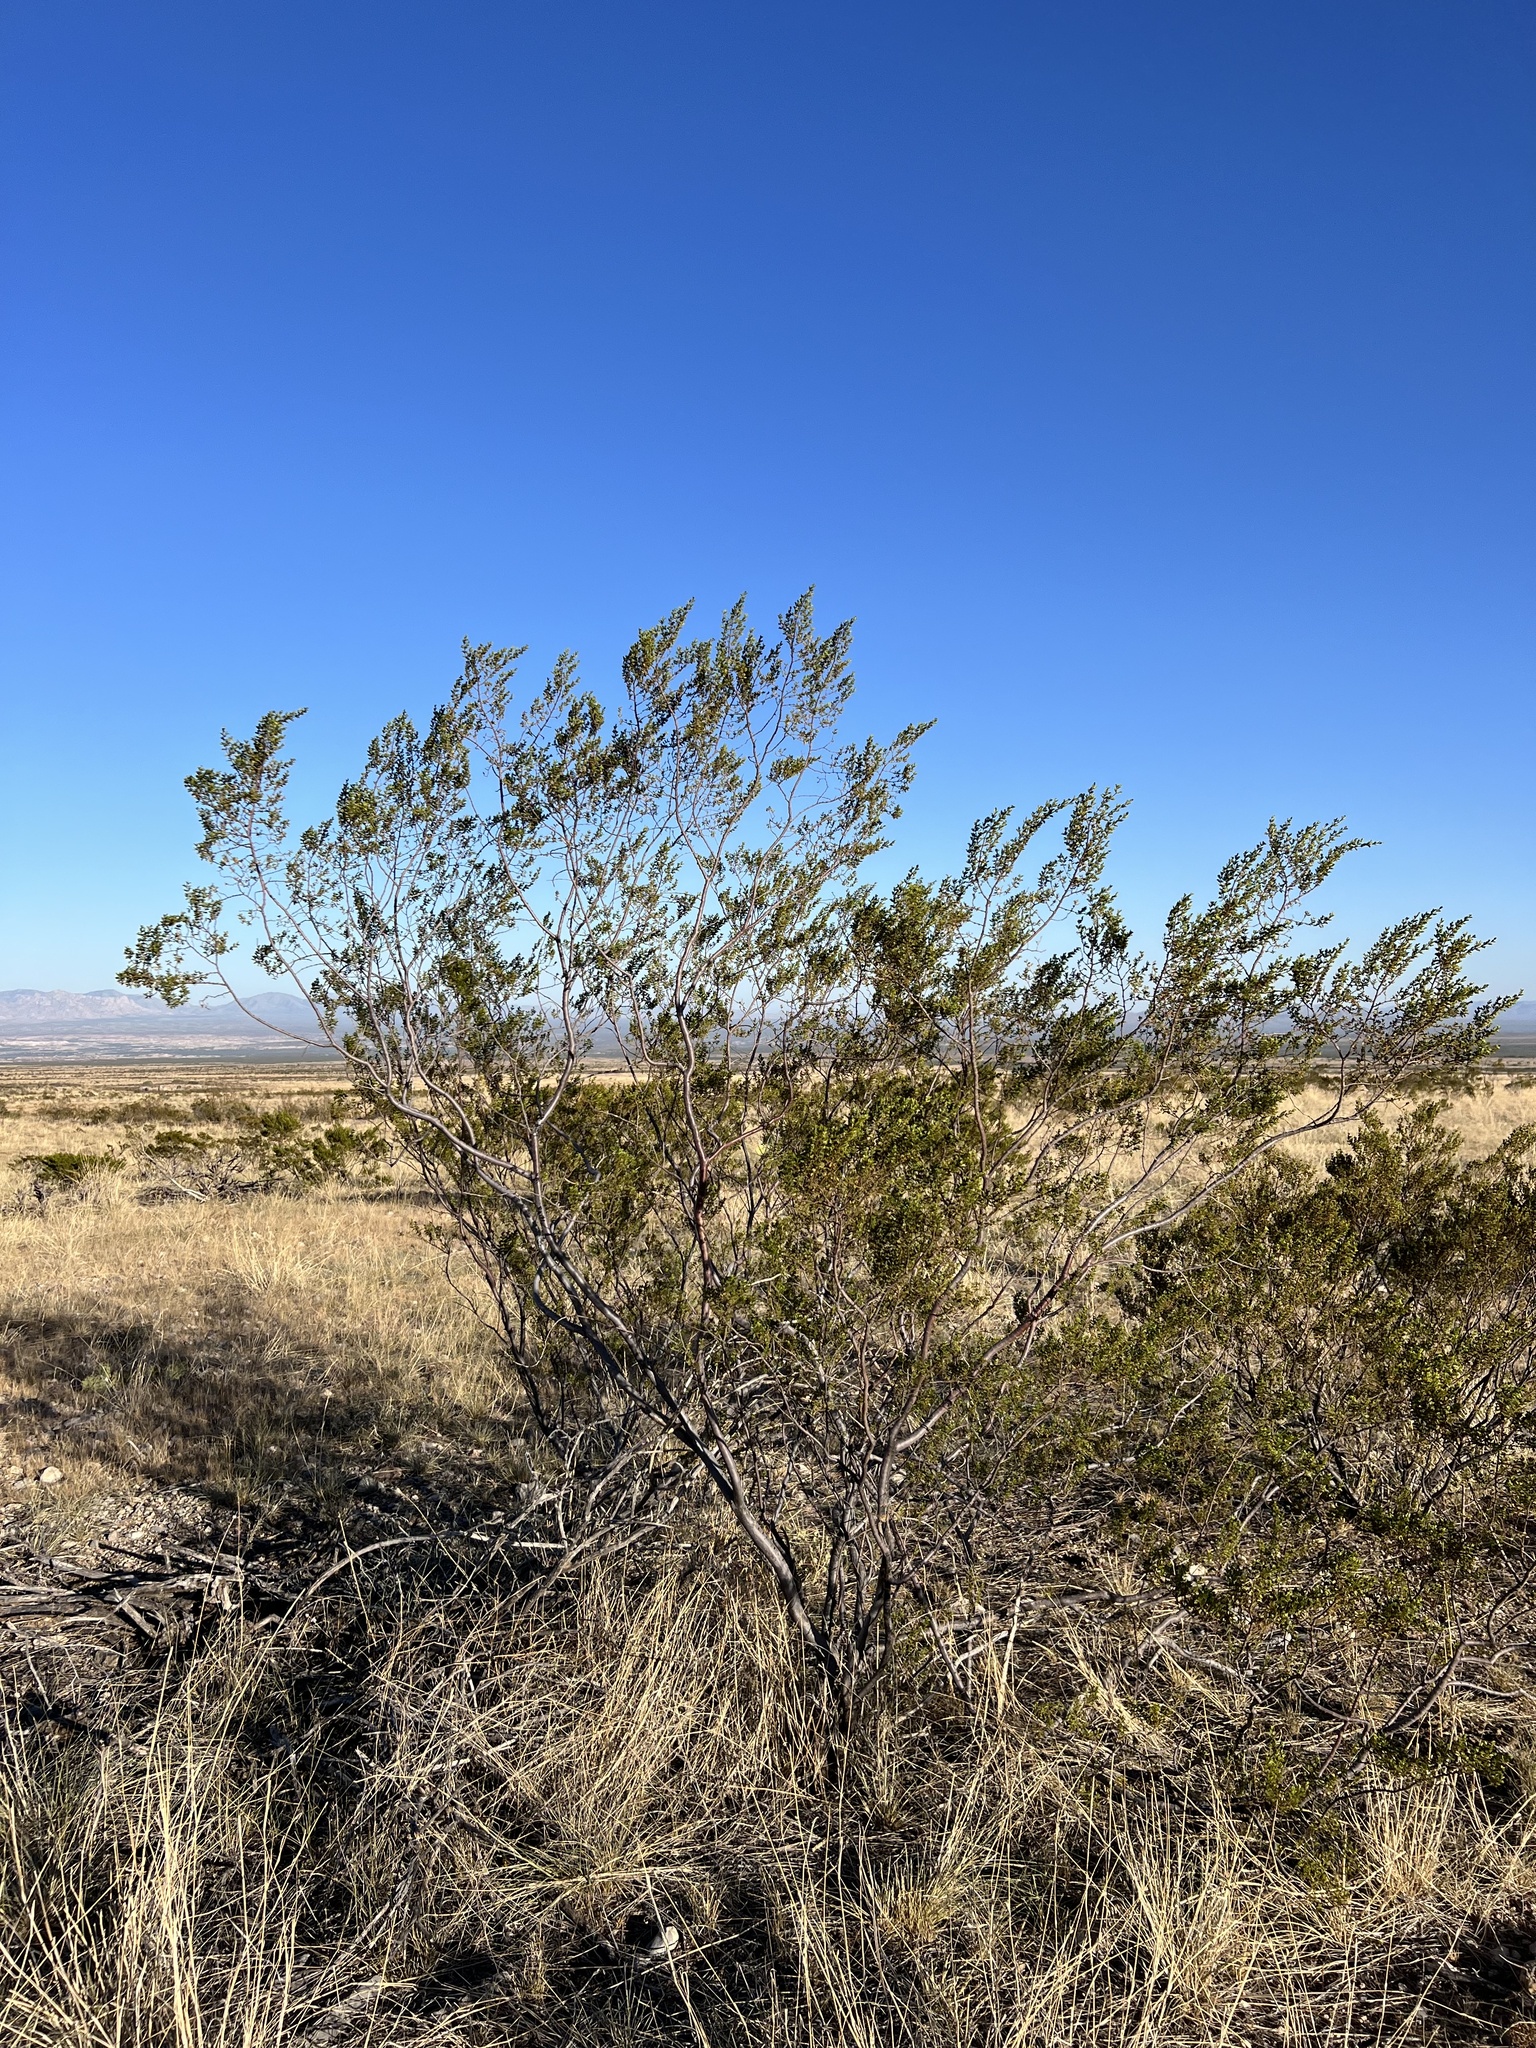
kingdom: Plantae
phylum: Tracheophyta
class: Magnoliopsida
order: Zygophyllales
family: Zygophyllaceae
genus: Larrea
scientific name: Larrea tridentata
